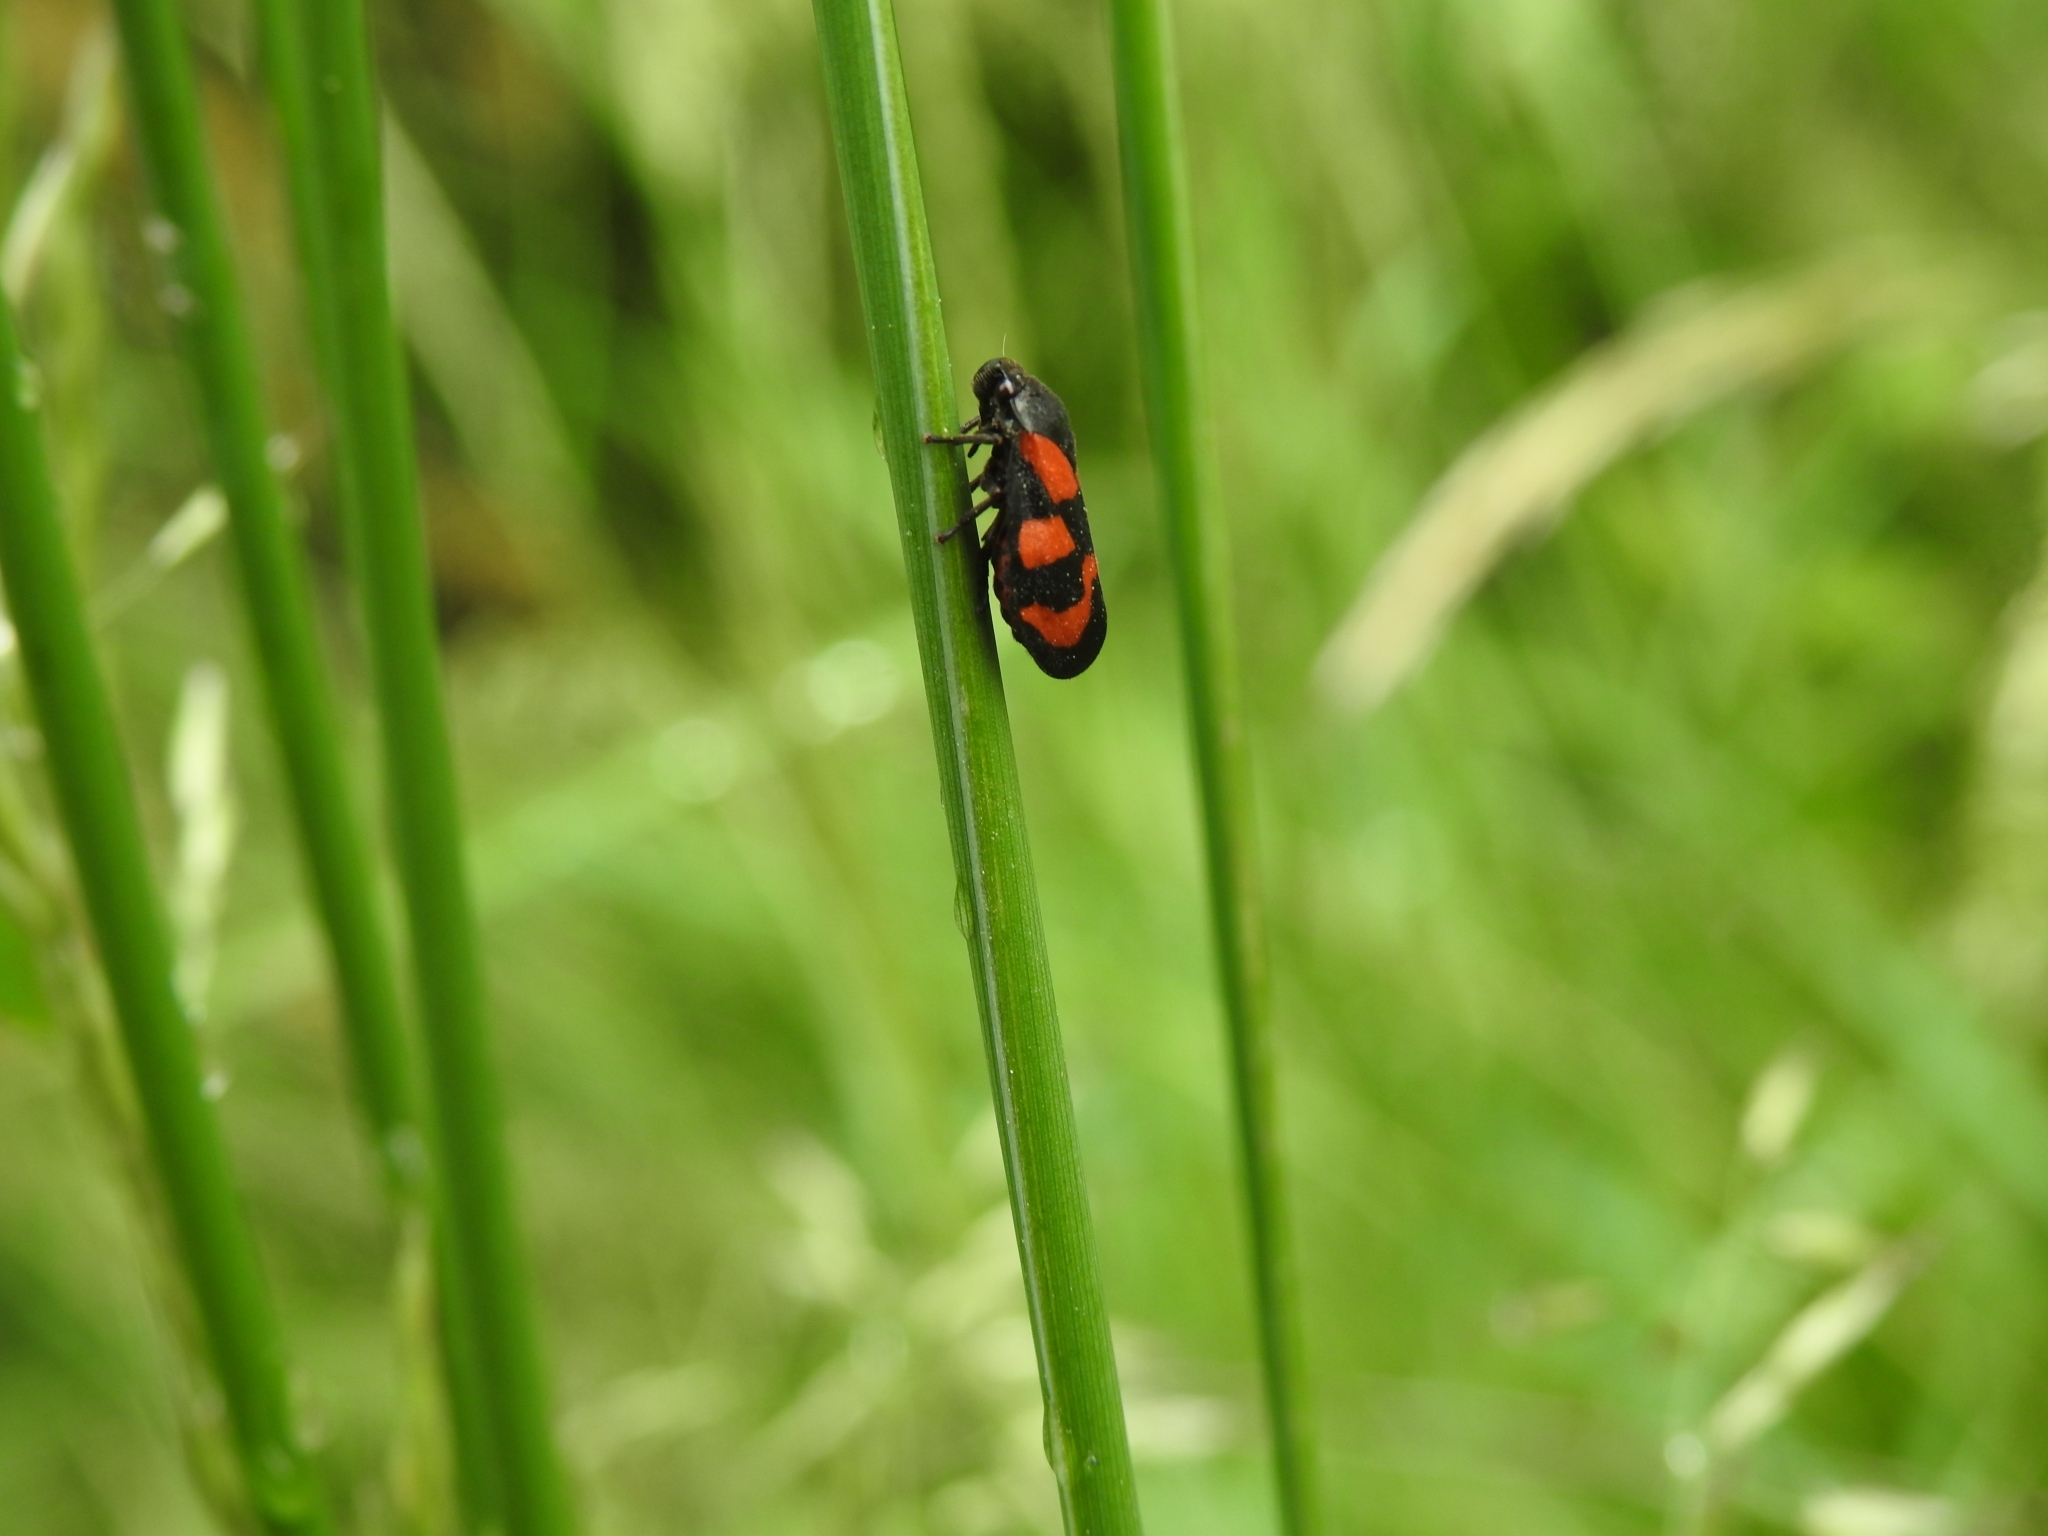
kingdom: Animalia
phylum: Arthropoda
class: Insecta
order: Hemiptera
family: Cercopidae
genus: Cercopis
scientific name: Cercopis vulnerata
